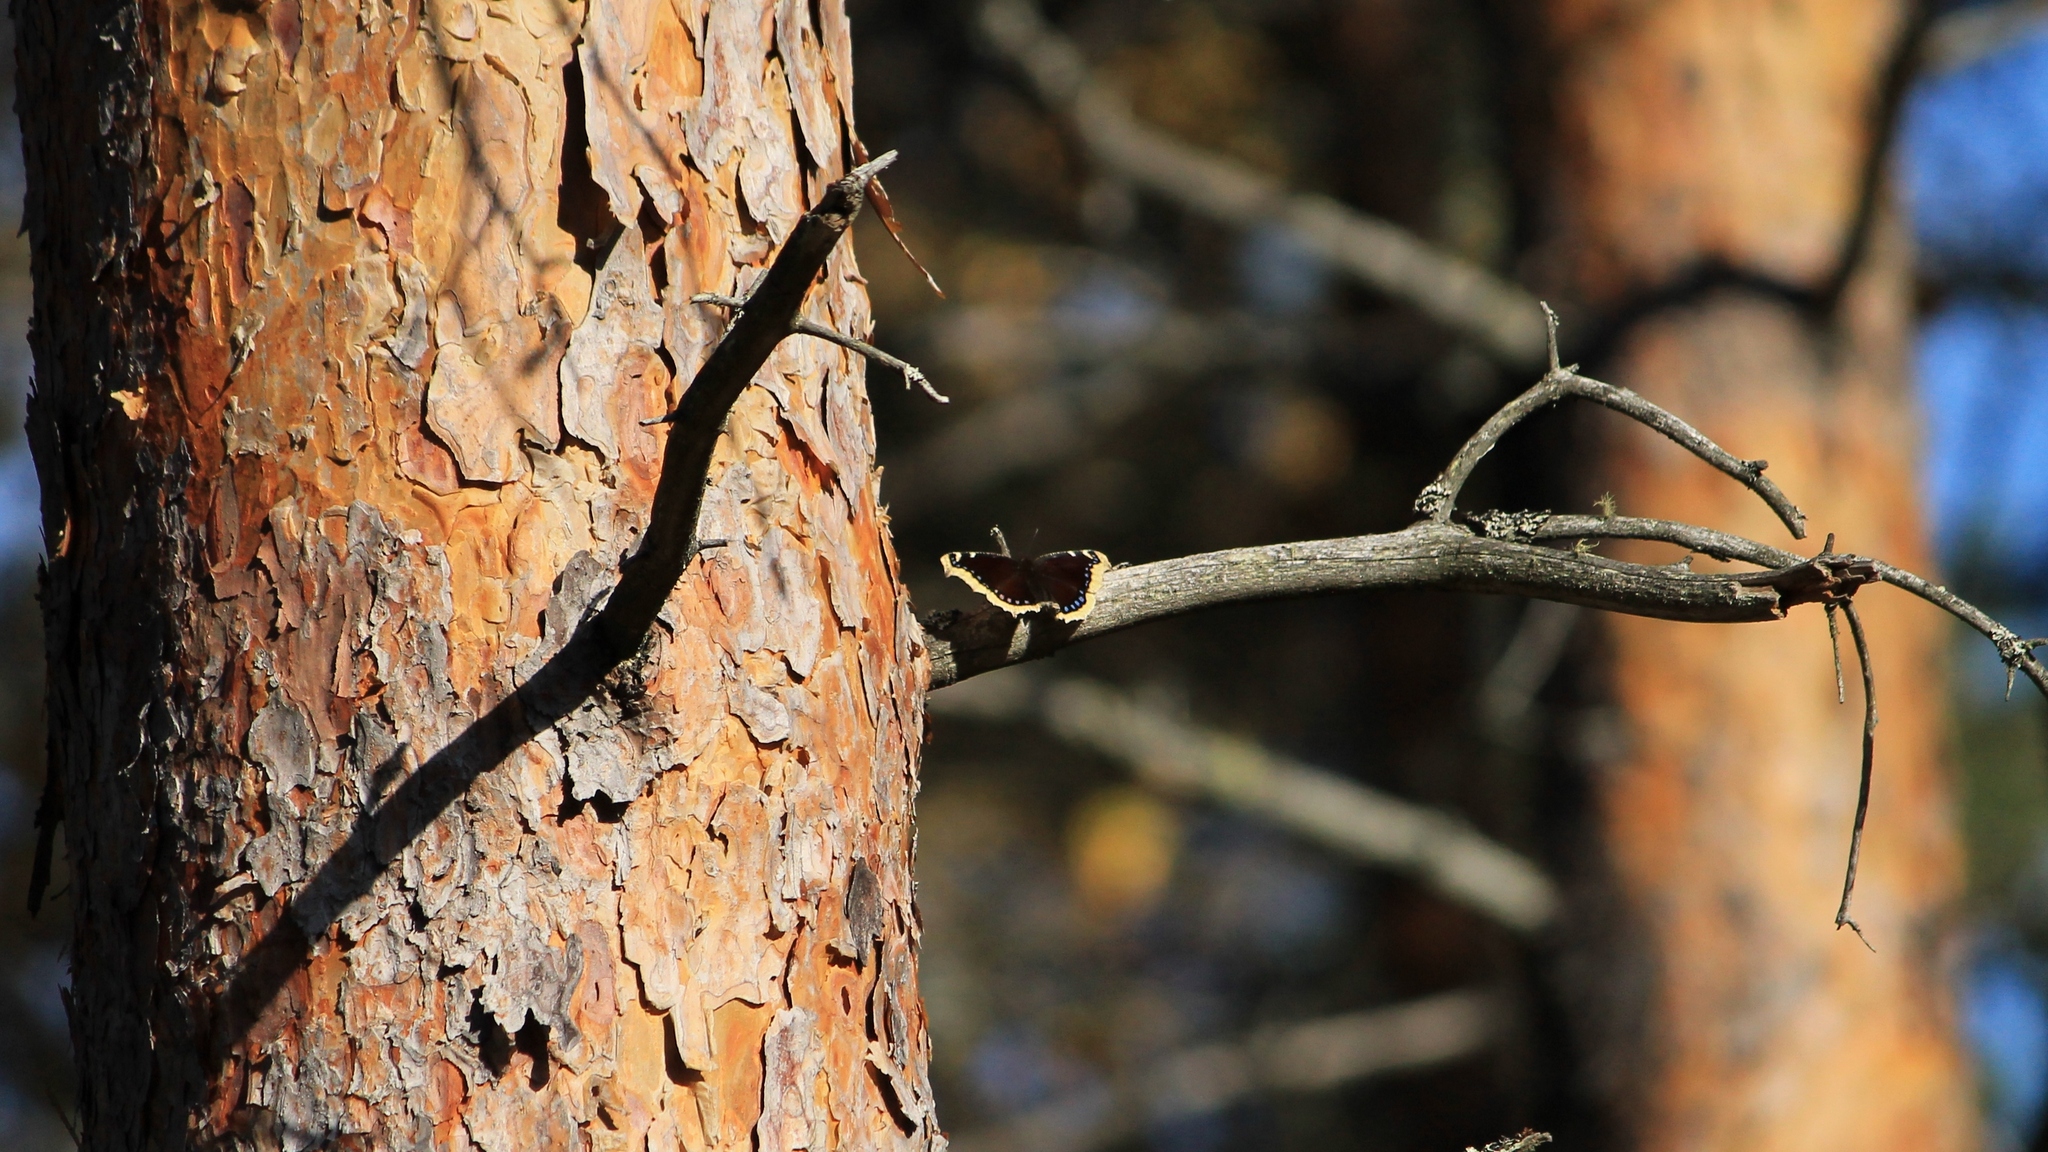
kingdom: Animalia
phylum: Arthropoda
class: Insecta
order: Lepidoptera
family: Nymphalidae
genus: Nymphalis
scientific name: Nymphalis antiopa
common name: Camberwell beauty
